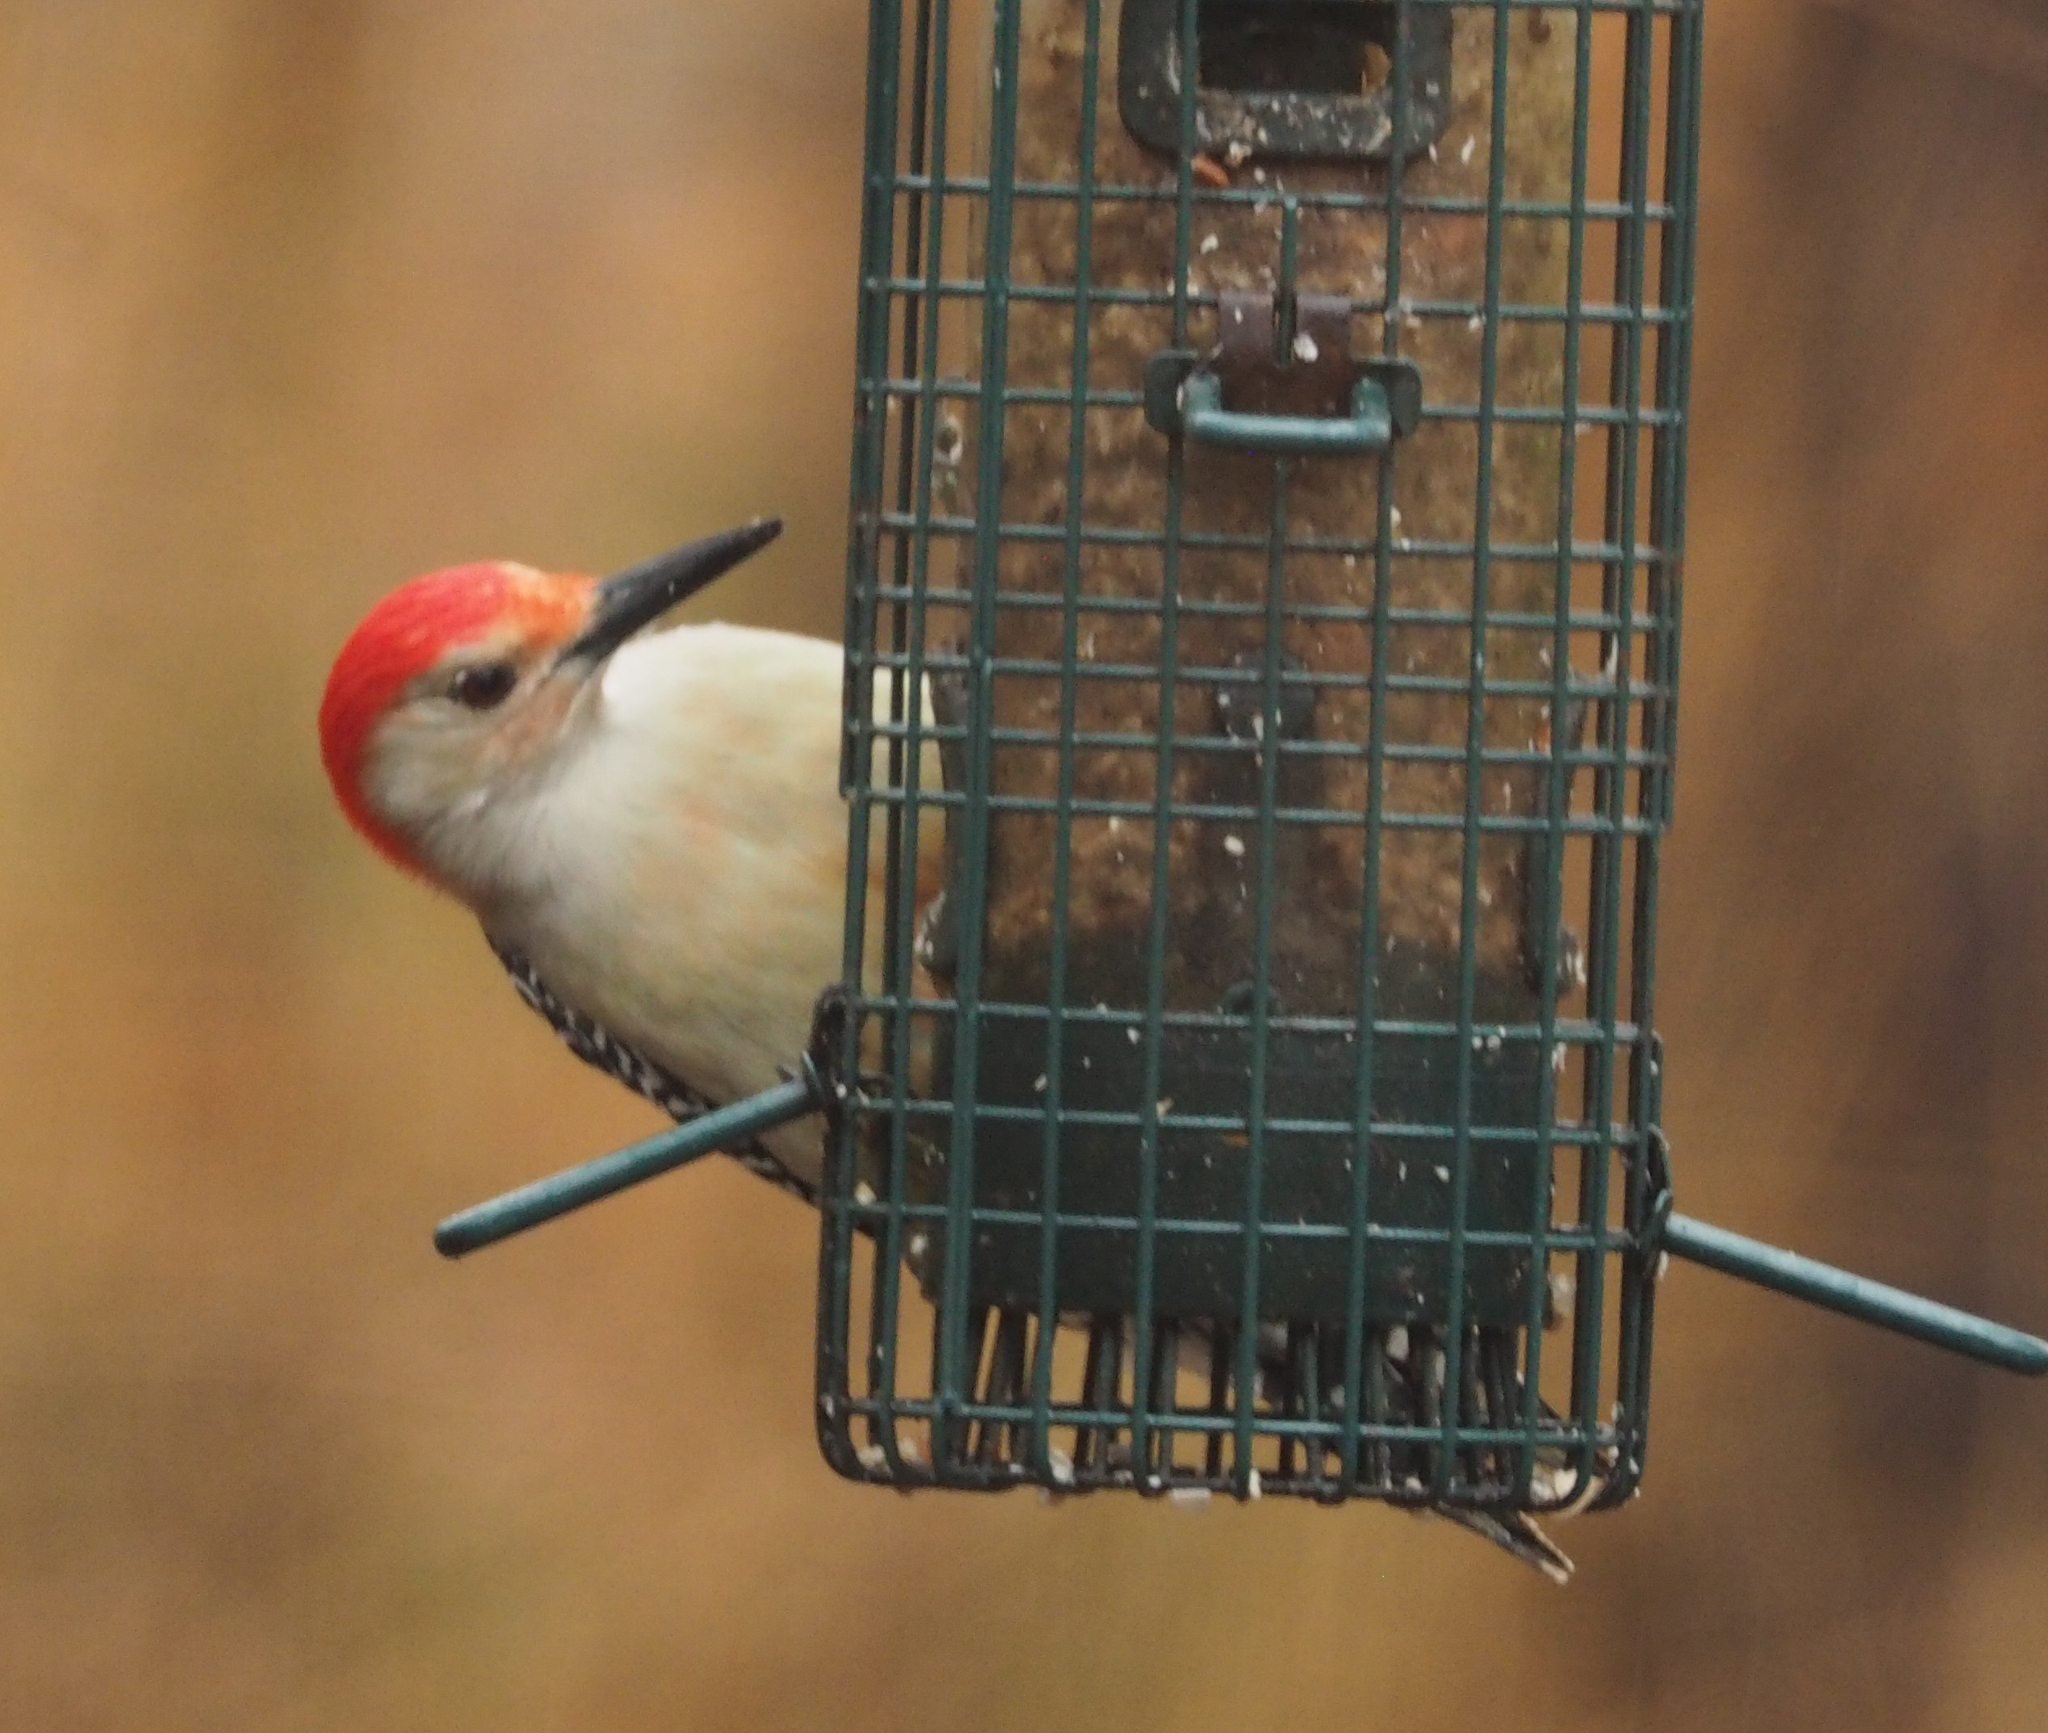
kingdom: Animalia
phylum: Chordata
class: Aves
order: Piciformes
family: Picidae
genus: Melanerpes
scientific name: Melanerpes carolinus
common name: Red-bellied woodpecker
